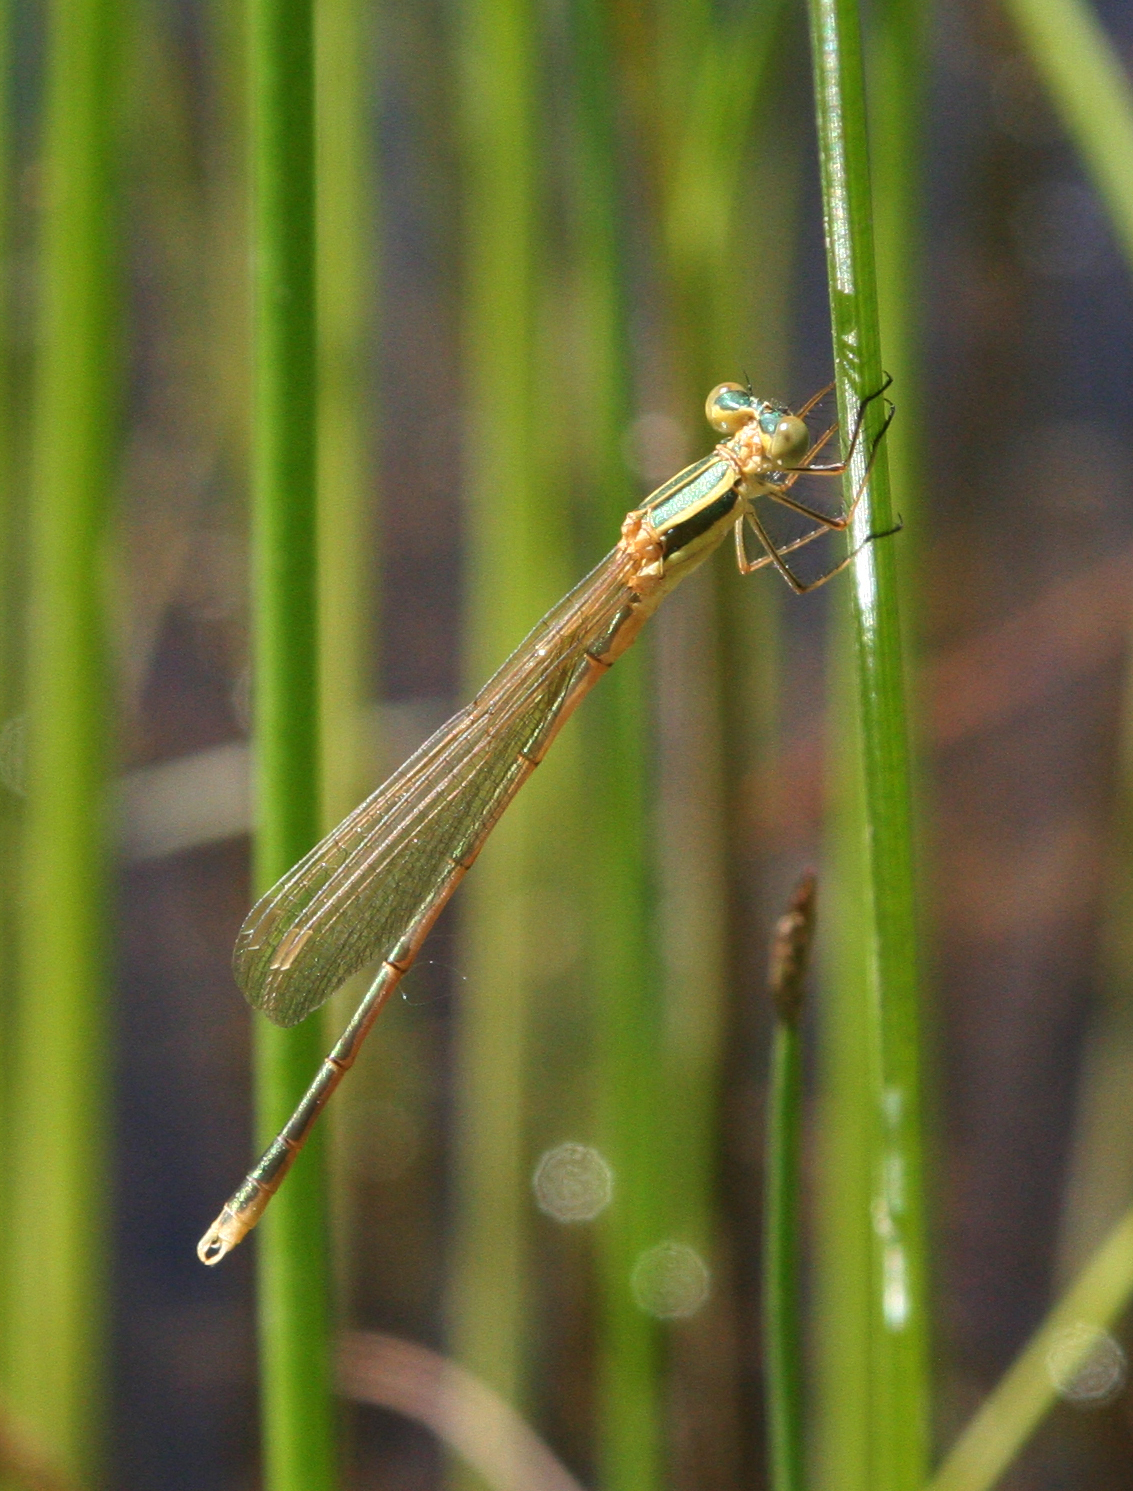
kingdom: Animalia
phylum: Arthropoda
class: Insecta
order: Odonata
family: Lestidae
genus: Lestes
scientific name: Lestes barbarus
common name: Migrant spreadwing
